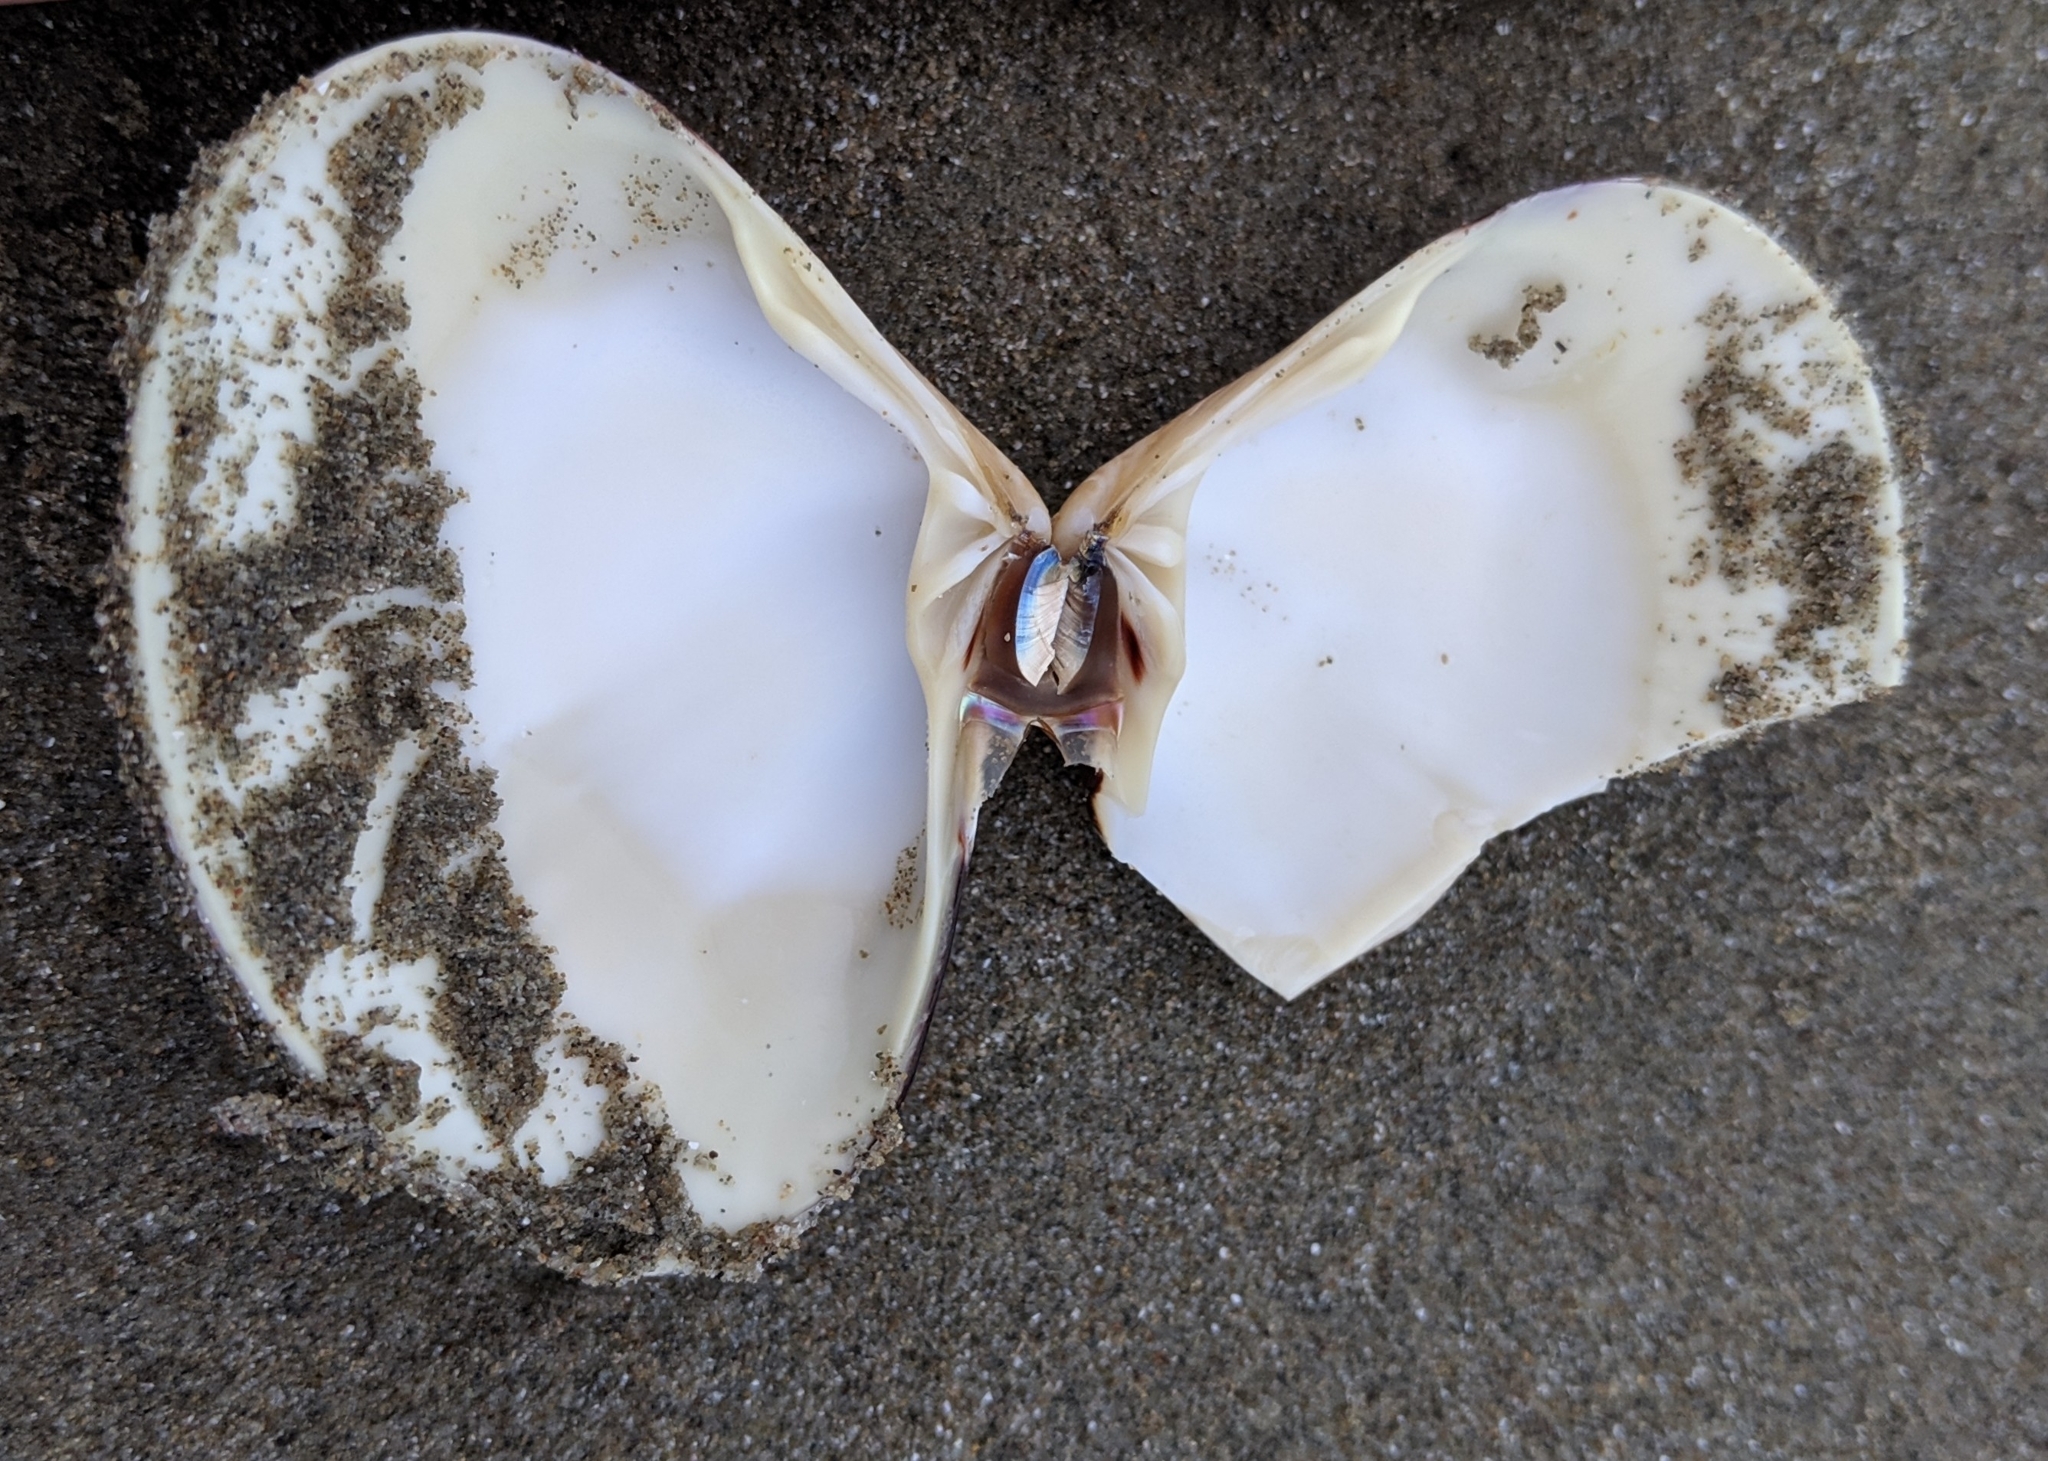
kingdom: Animalia
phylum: Mollusca
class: Bivalvia
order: Venerida
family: Veneridae
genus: Tivela
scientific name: Tivela stultorum
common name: Pismo clam
